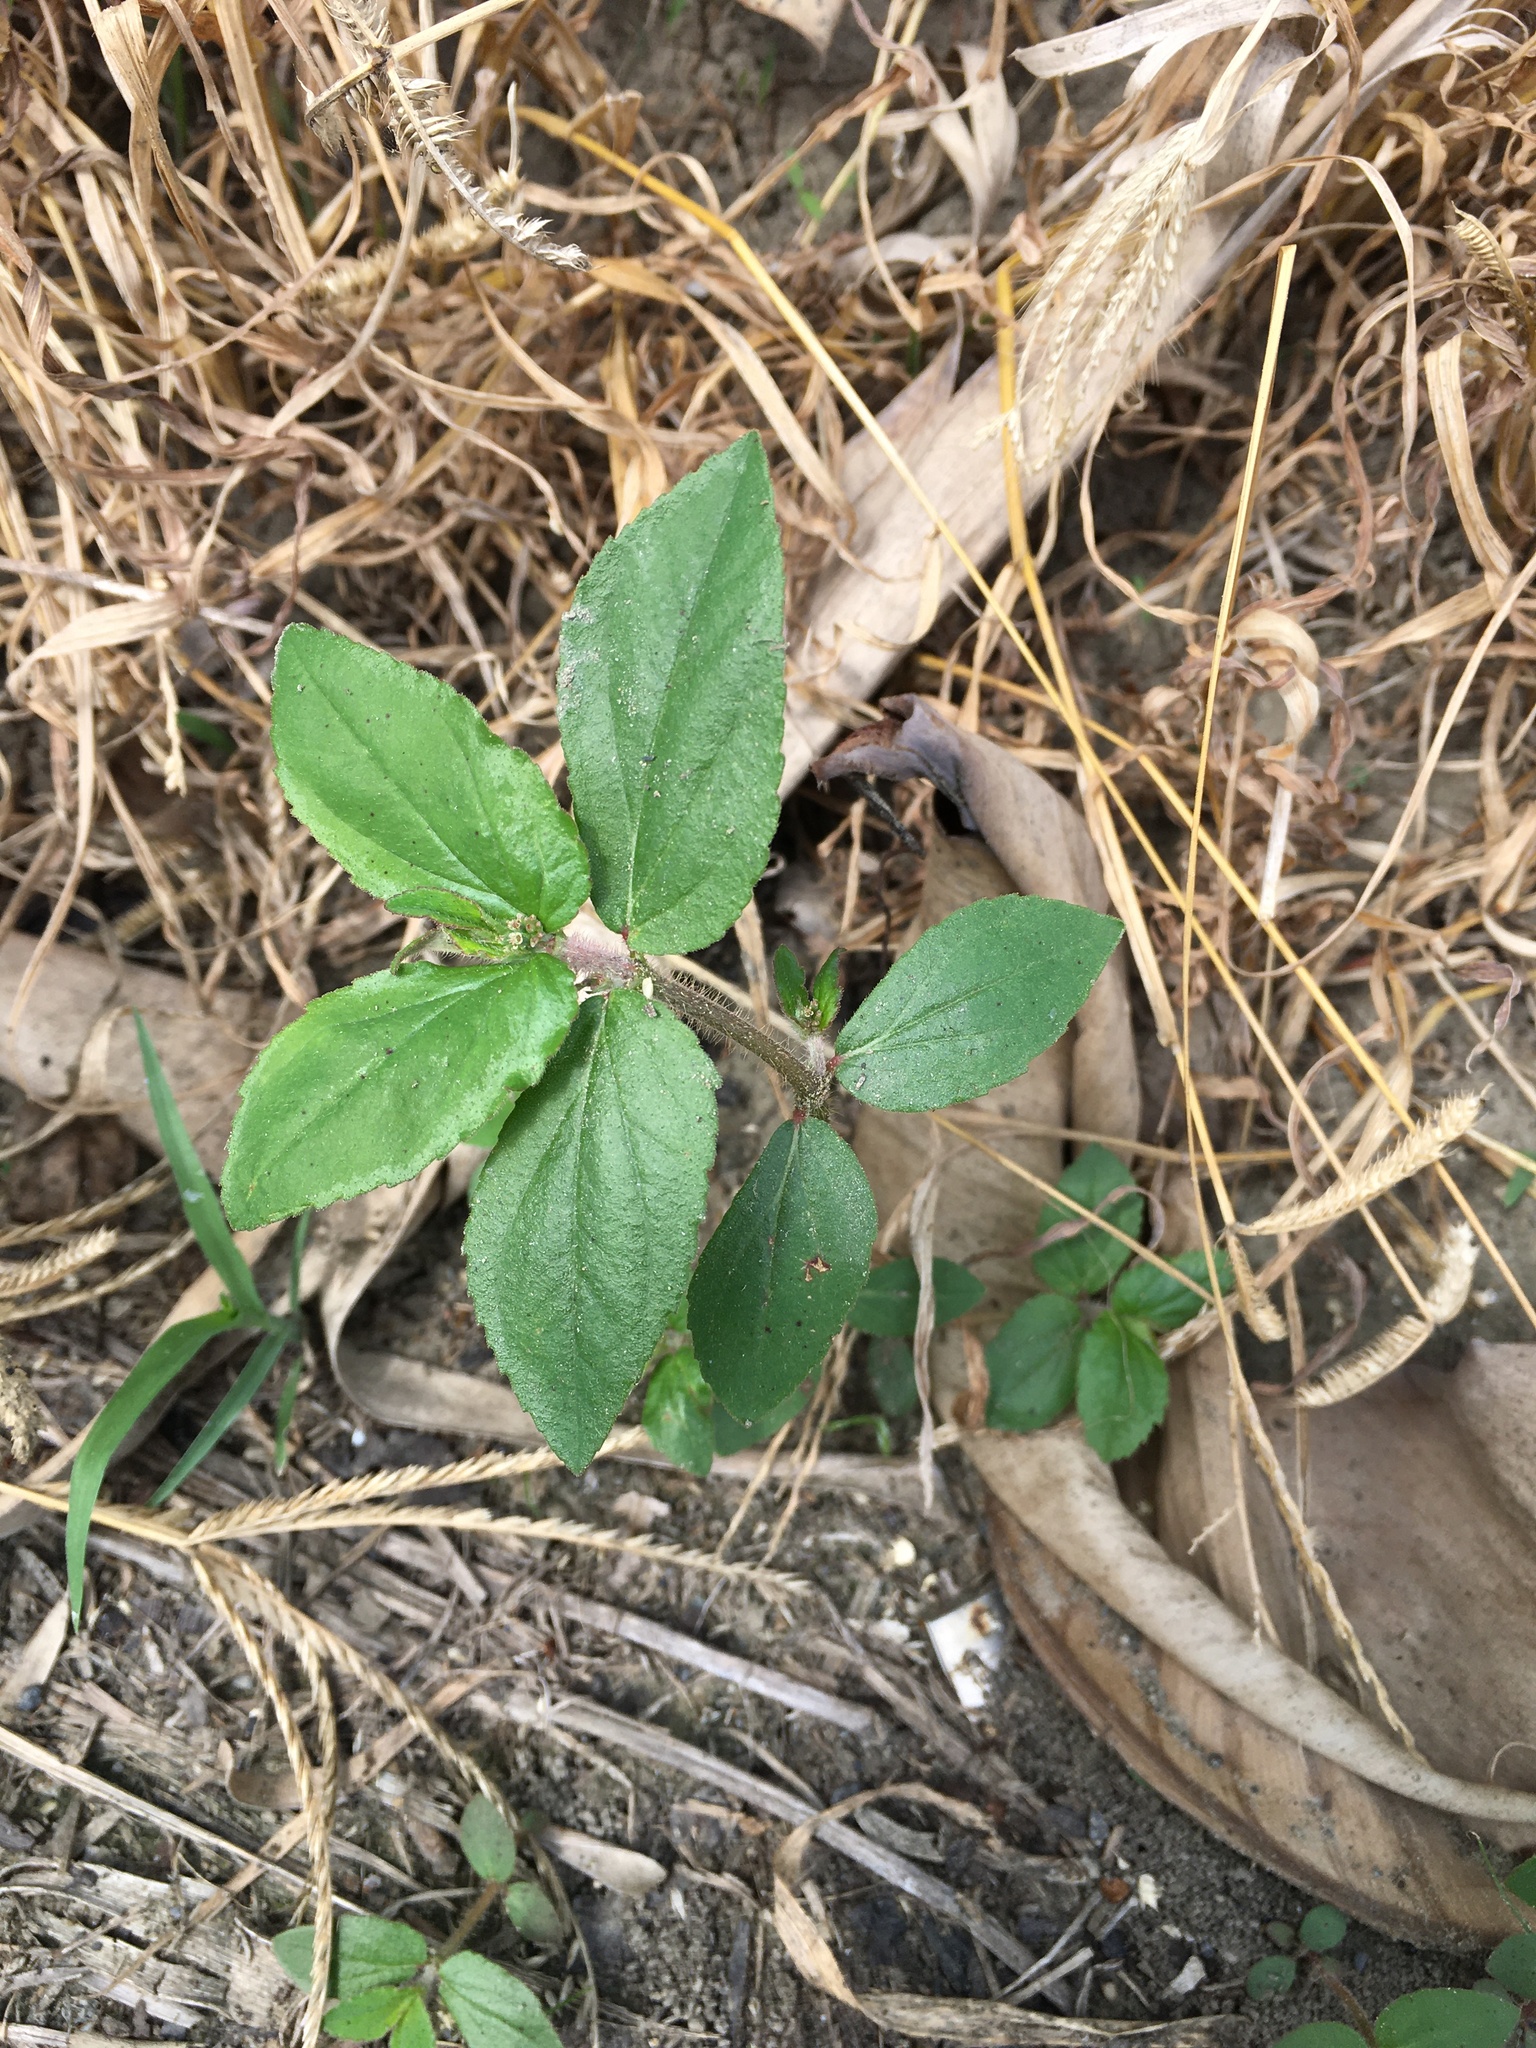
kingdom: Plantae
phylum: Tracheophyta
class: Magnoliopsida
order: Malpighiales
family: Euphorbiaceae
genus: Euphorbia
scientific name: Euphorbia hirta
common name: Pillpod sandmat
